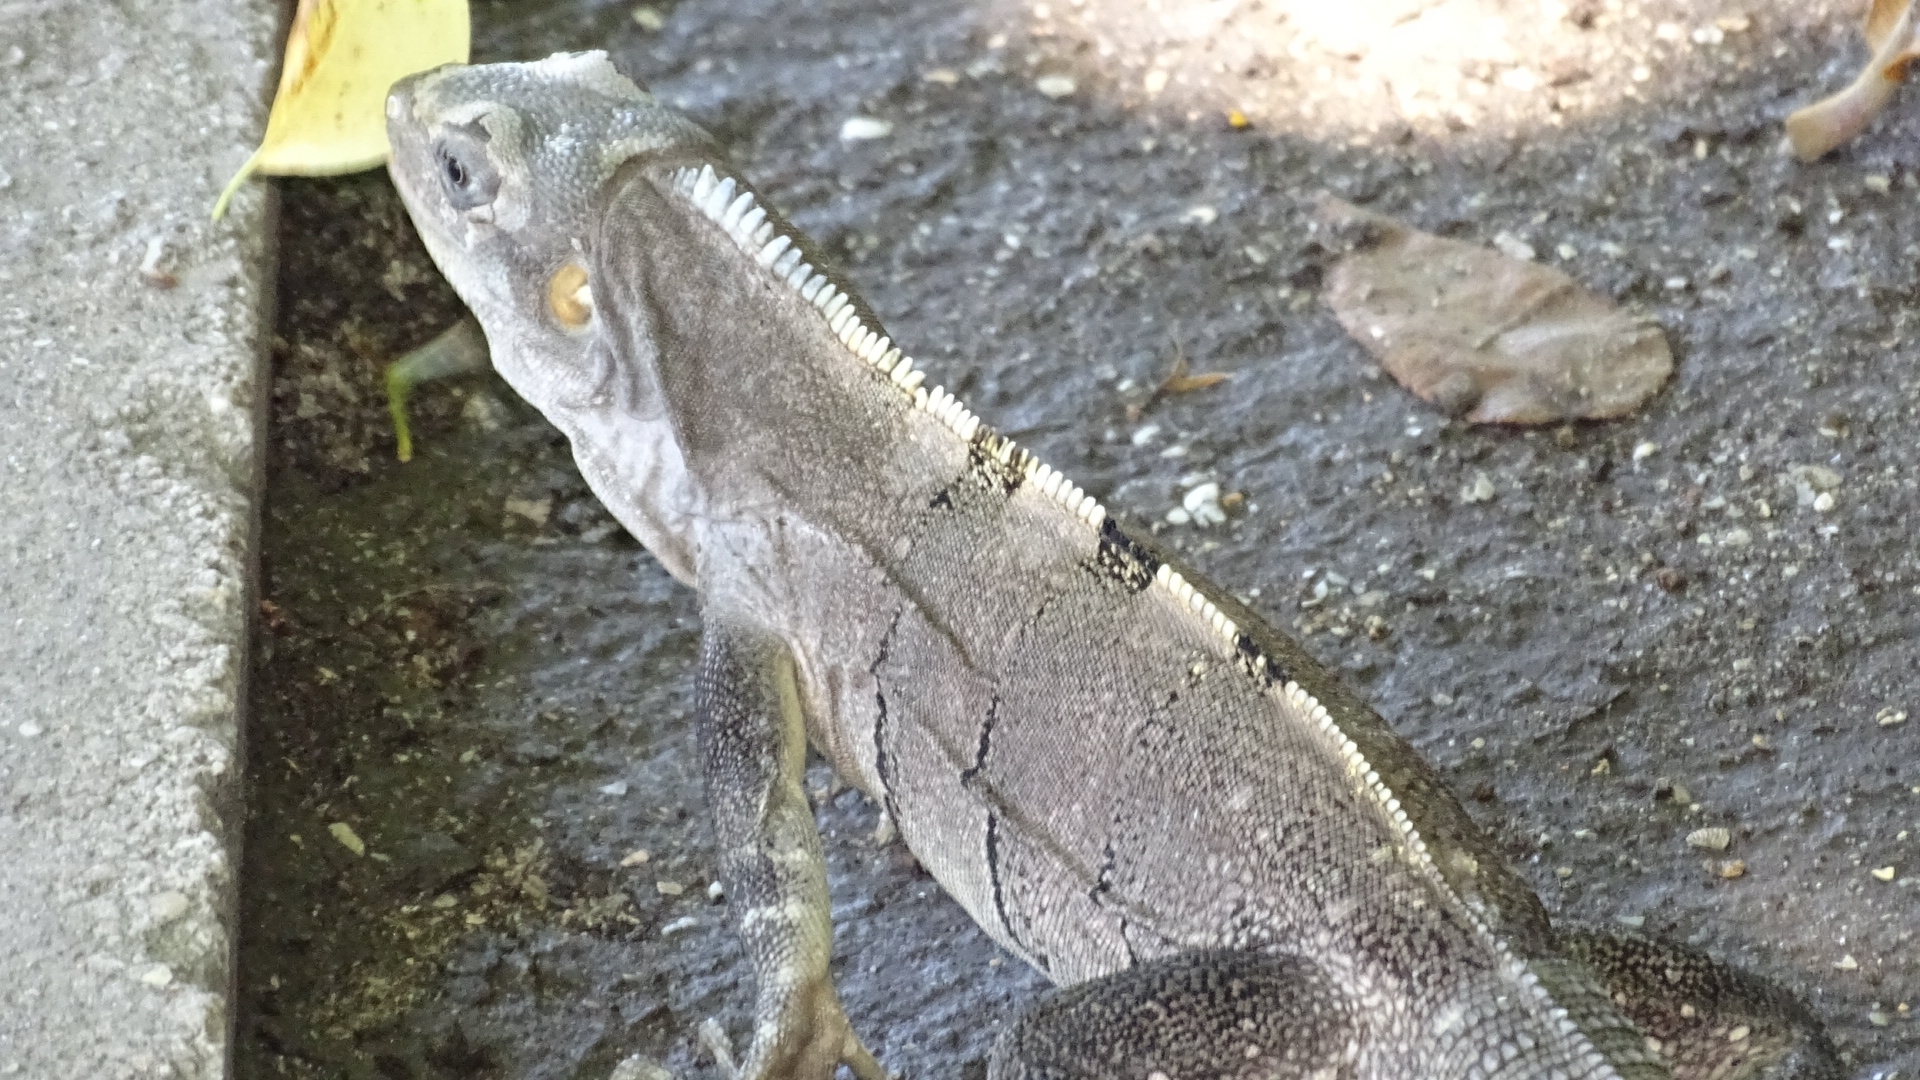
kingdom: Animalia
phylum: Chordata
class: Squamata
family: Iguanidae
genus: Ctenosaura
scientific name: Ctenosaura similis
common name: Black spiny-tailed iguana
